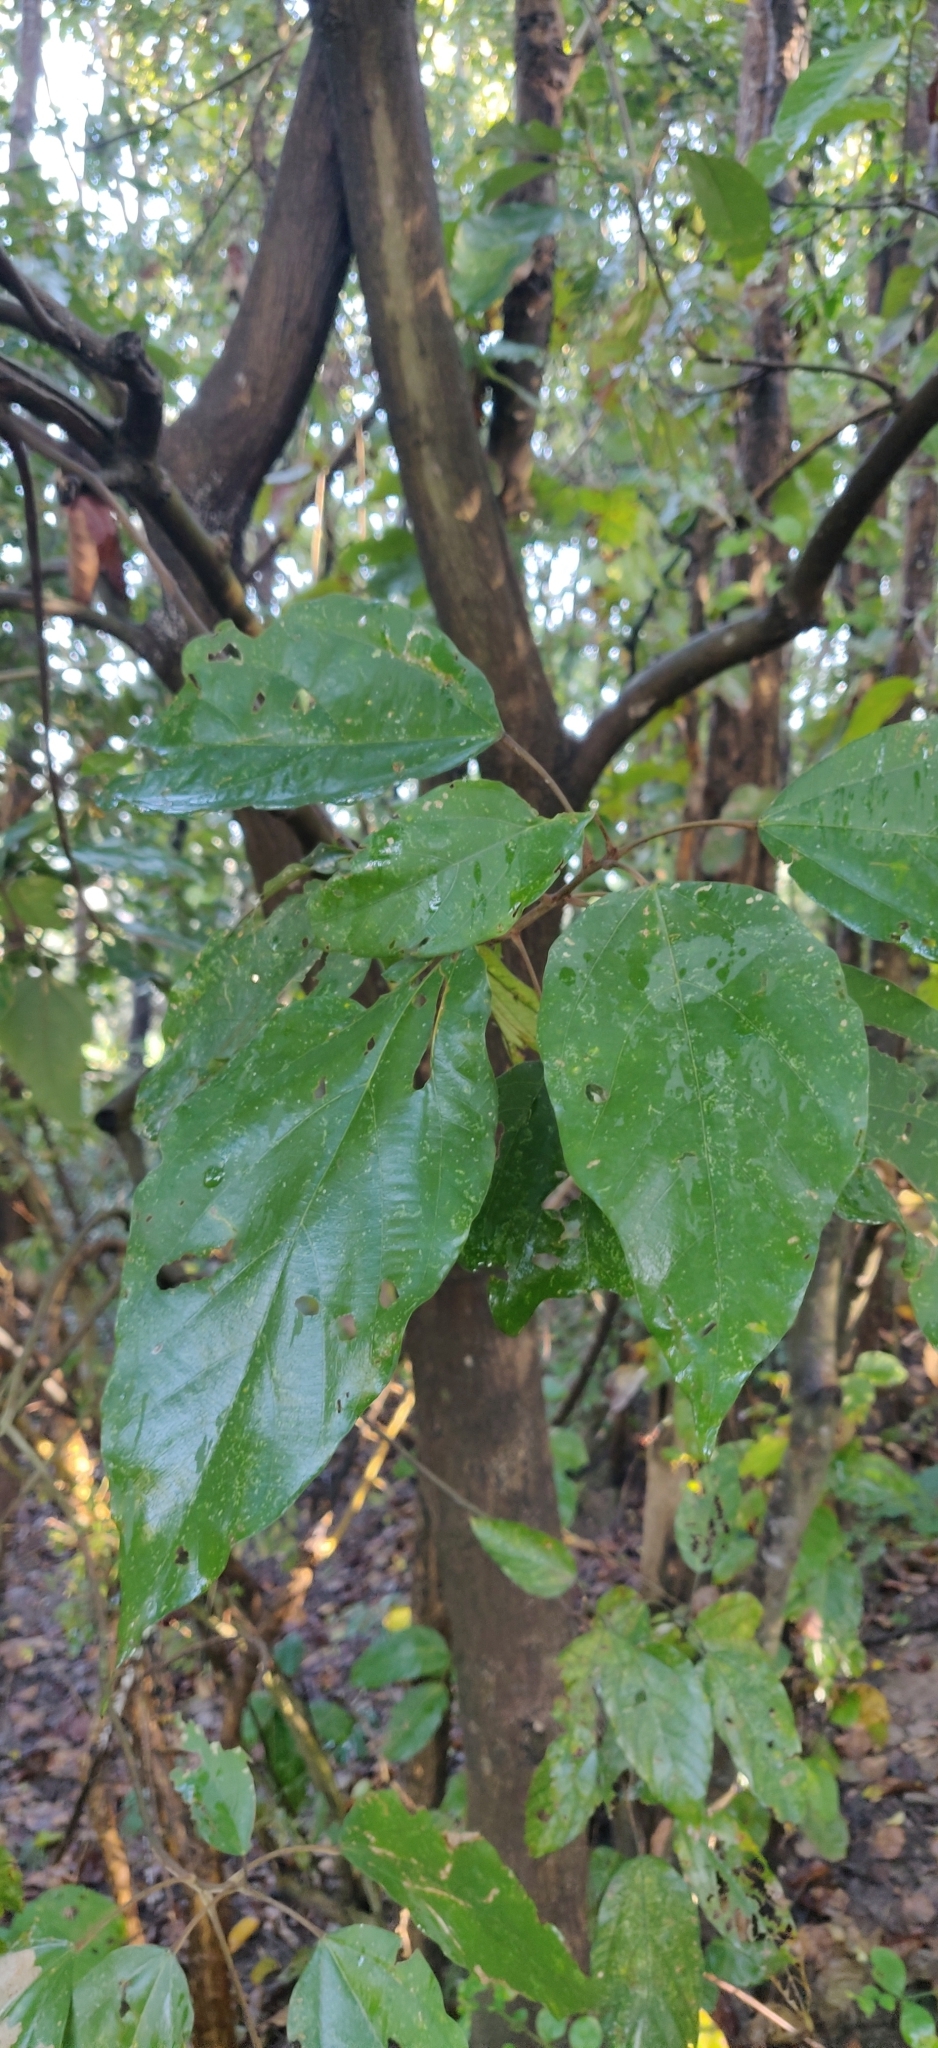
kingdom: Plantae
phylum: Tracheophyta
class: Magnoliopsida
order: Malpighiales
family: Euphorbiaceae
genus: Mallotus
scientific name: Mallotus philippensis
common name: Kamala tree
